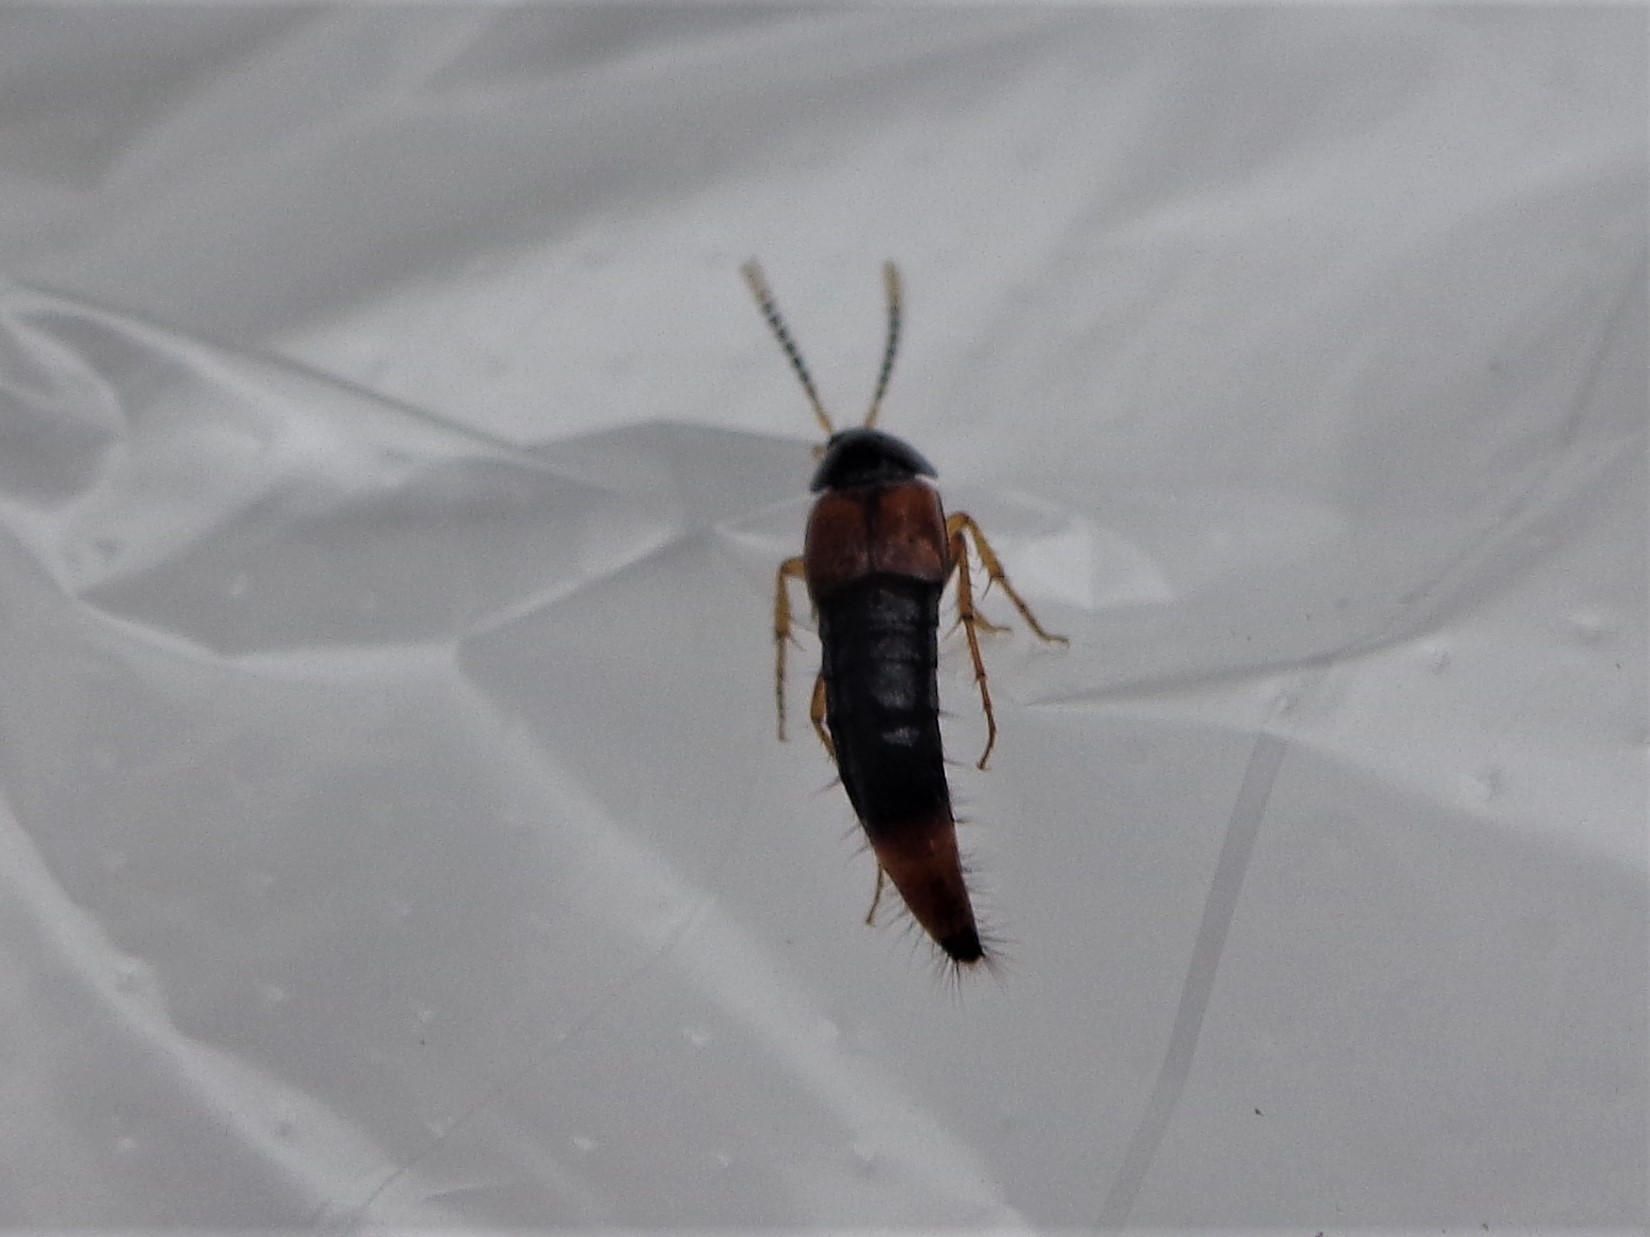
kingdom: Animalia
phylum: Arthropoda
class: Insecta
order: Coleoptera
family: Staphylinidae
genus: Bolitobius
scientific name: Bolitobius cingulatus
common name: Staph beetle
